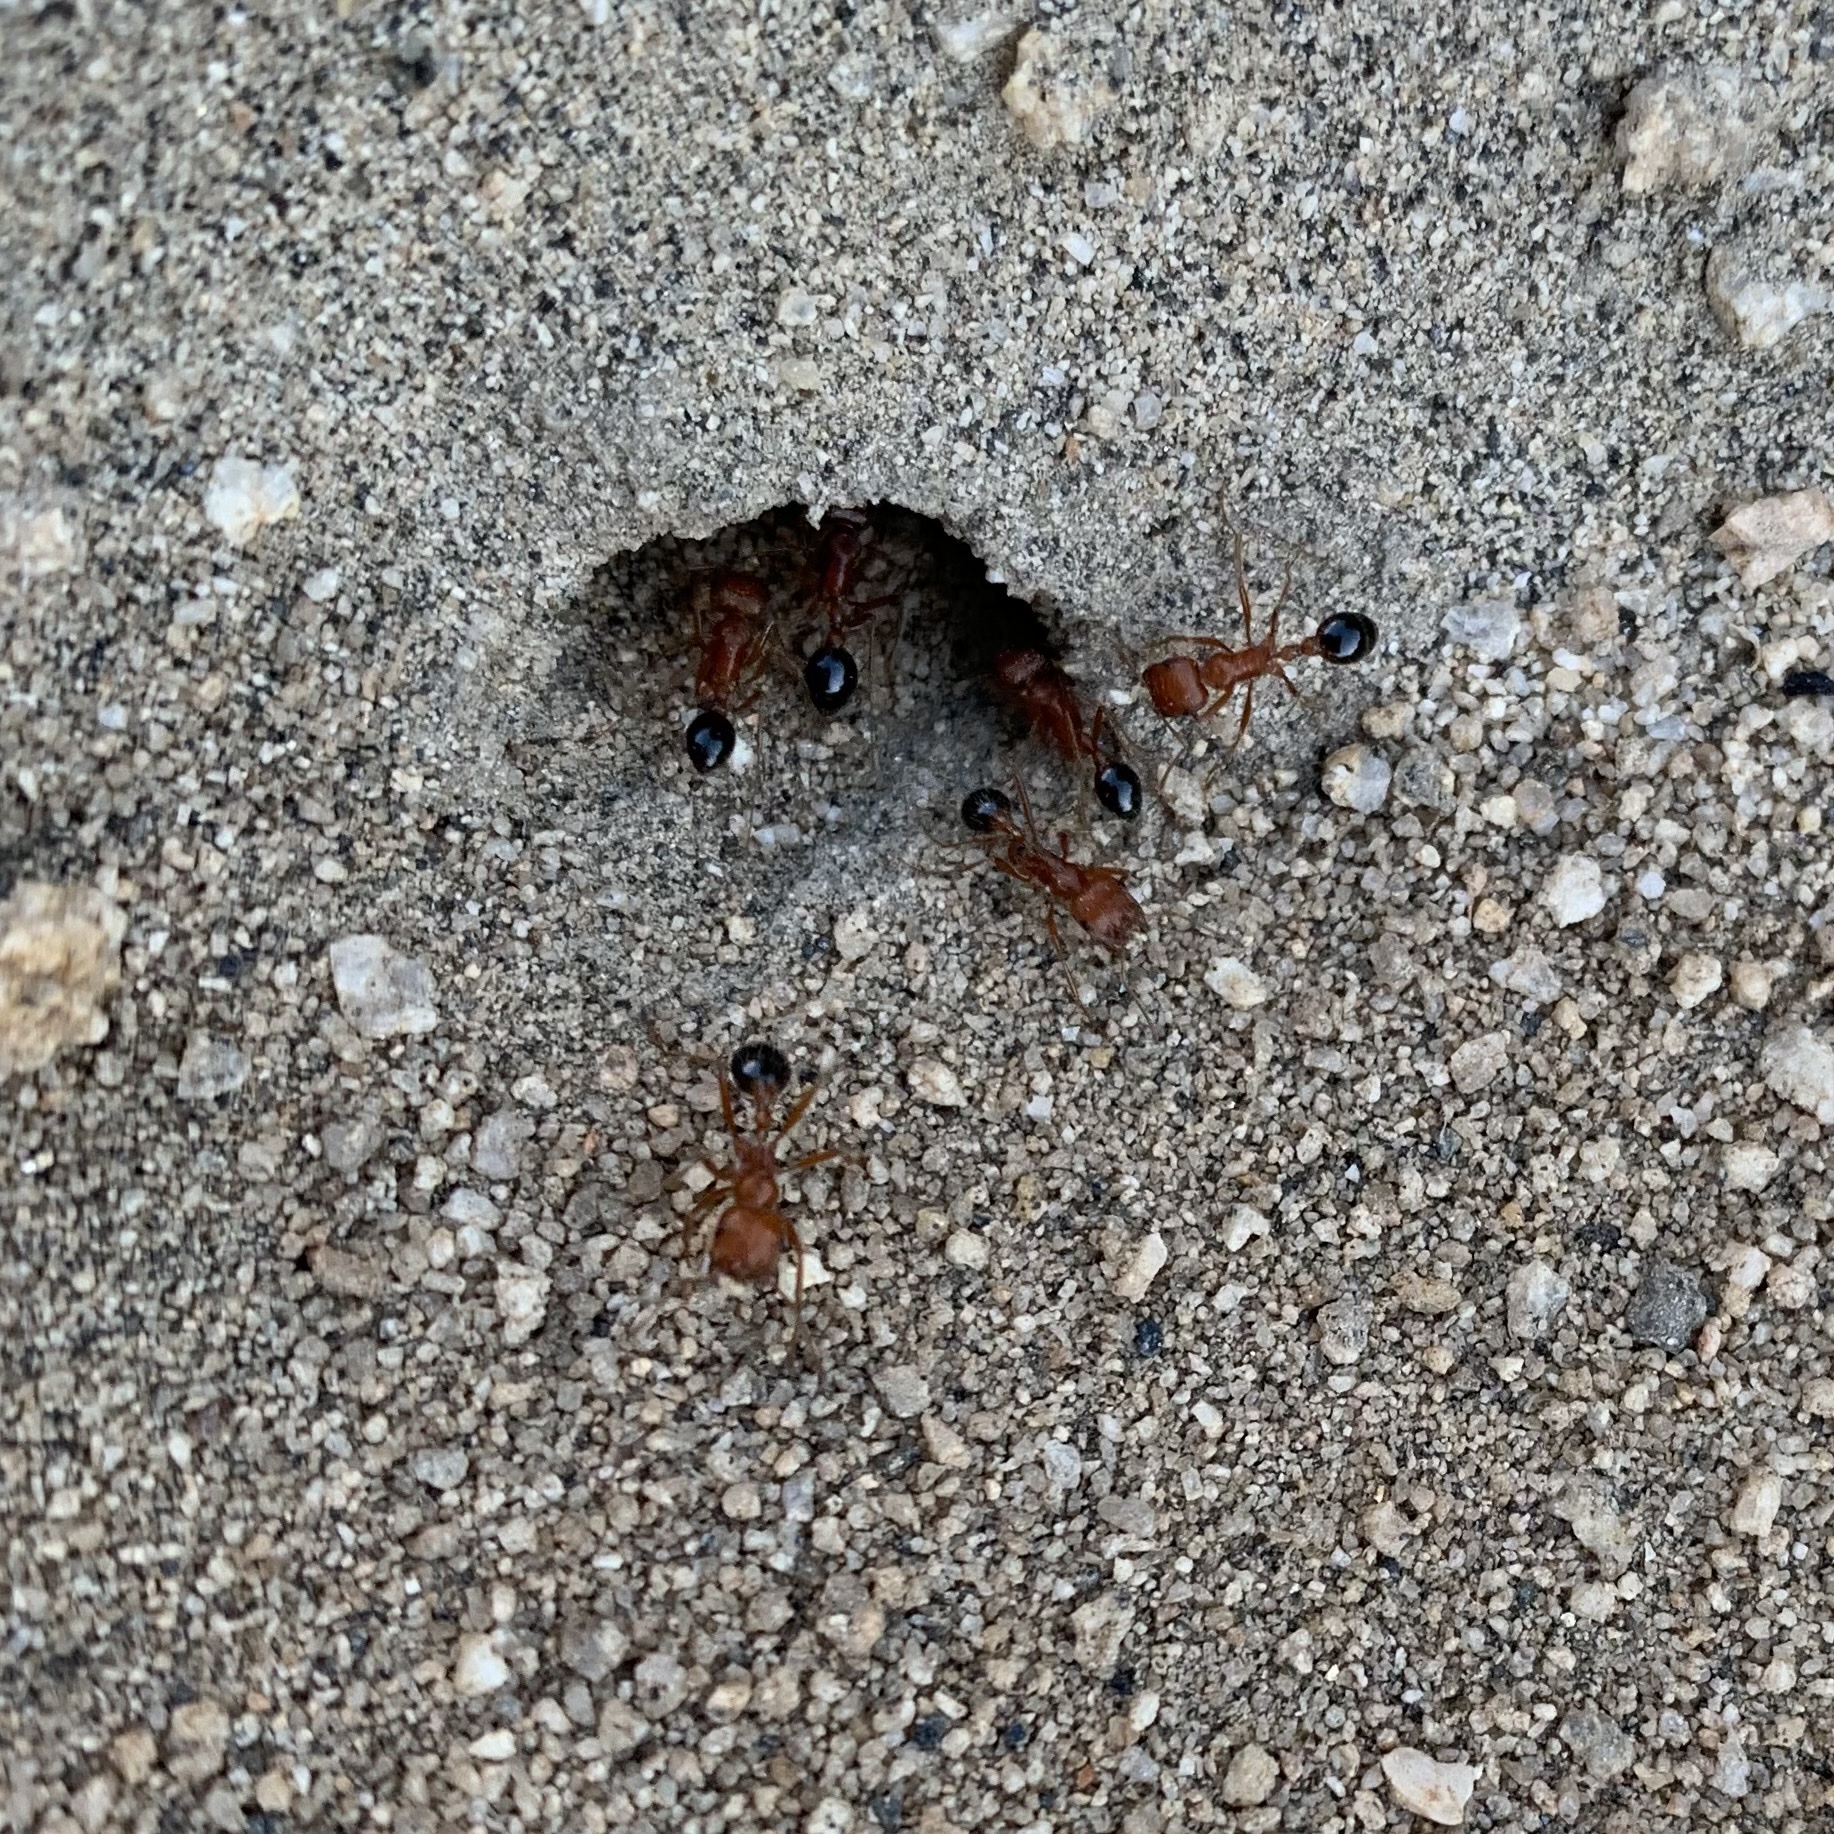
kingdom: Animalia
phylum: Arthropoda
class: Insecta
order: Hymenoptera
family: Formicidae
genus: Pogonomyrmex
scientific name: Pogonomyrmex californicus
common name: California harvester ant
